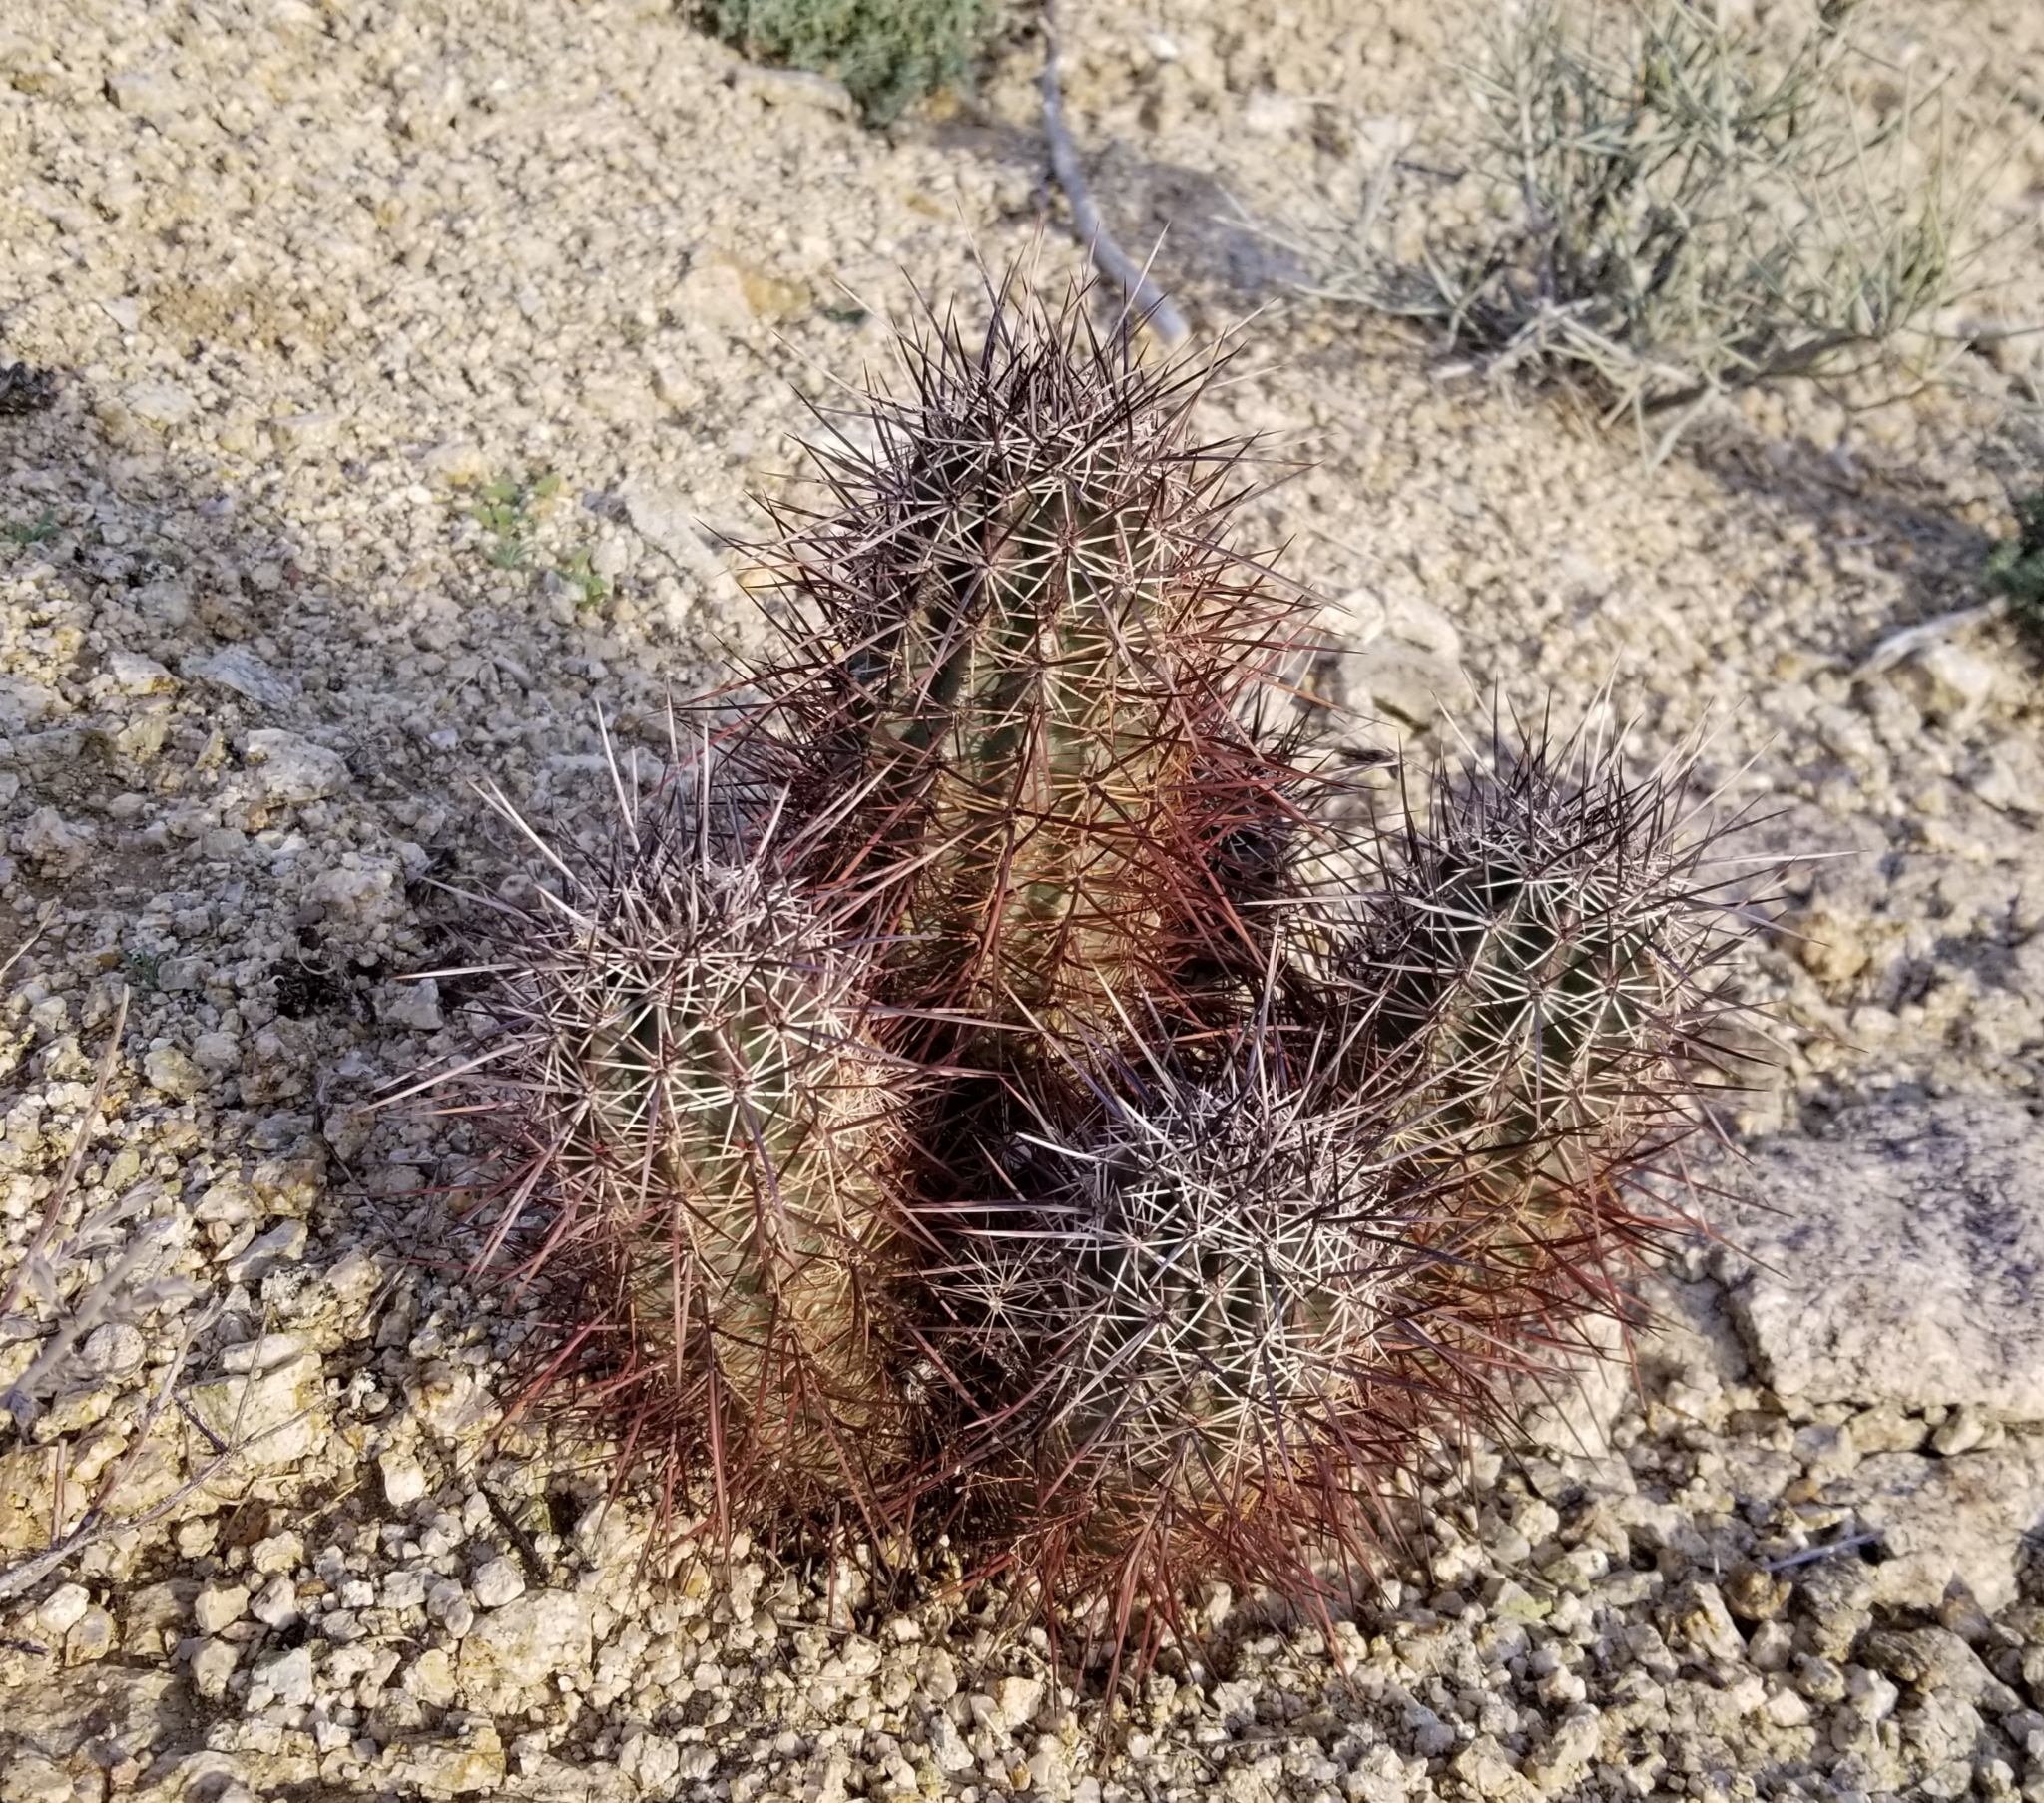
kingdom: Plantae
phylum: Tracheophyta
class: Magnoliopsida
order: Caryophyllales
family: Cactaceae
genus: Echinocereus
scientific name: Echinocereus engelmannii
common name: Engelmann's hedgehog cactus
